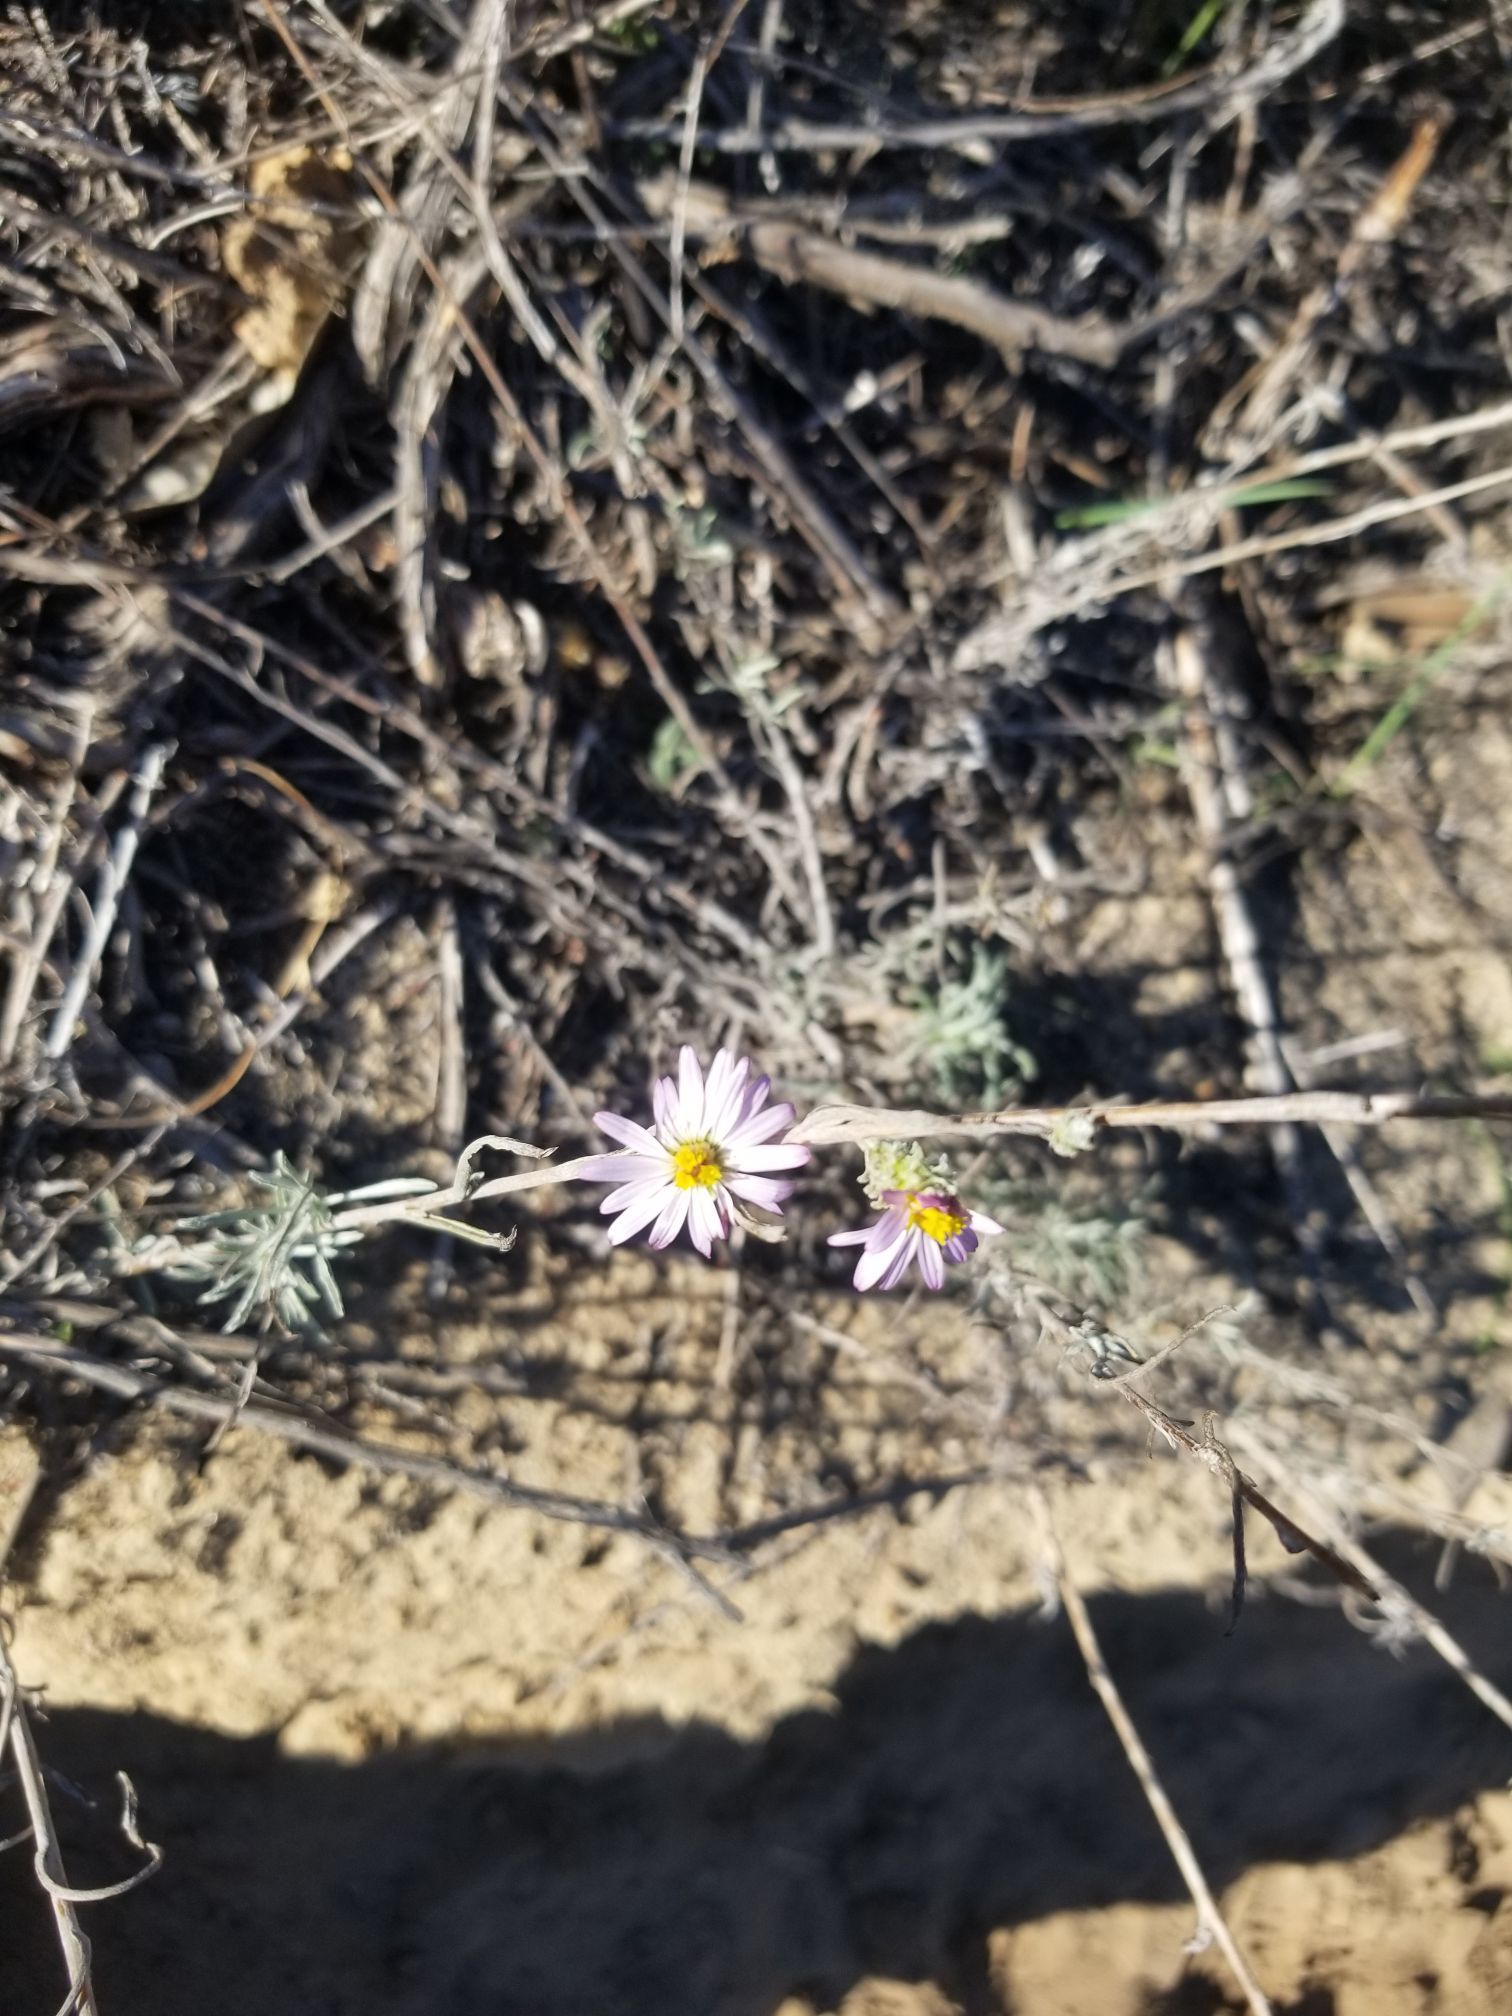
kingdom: Plantae
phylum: Tracheophyta
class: Magnoliopsida
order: Asterales
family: Asteraceae
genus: Corethrogyne
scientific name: Corethrogyne filaginifolia
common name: Sand-aster
